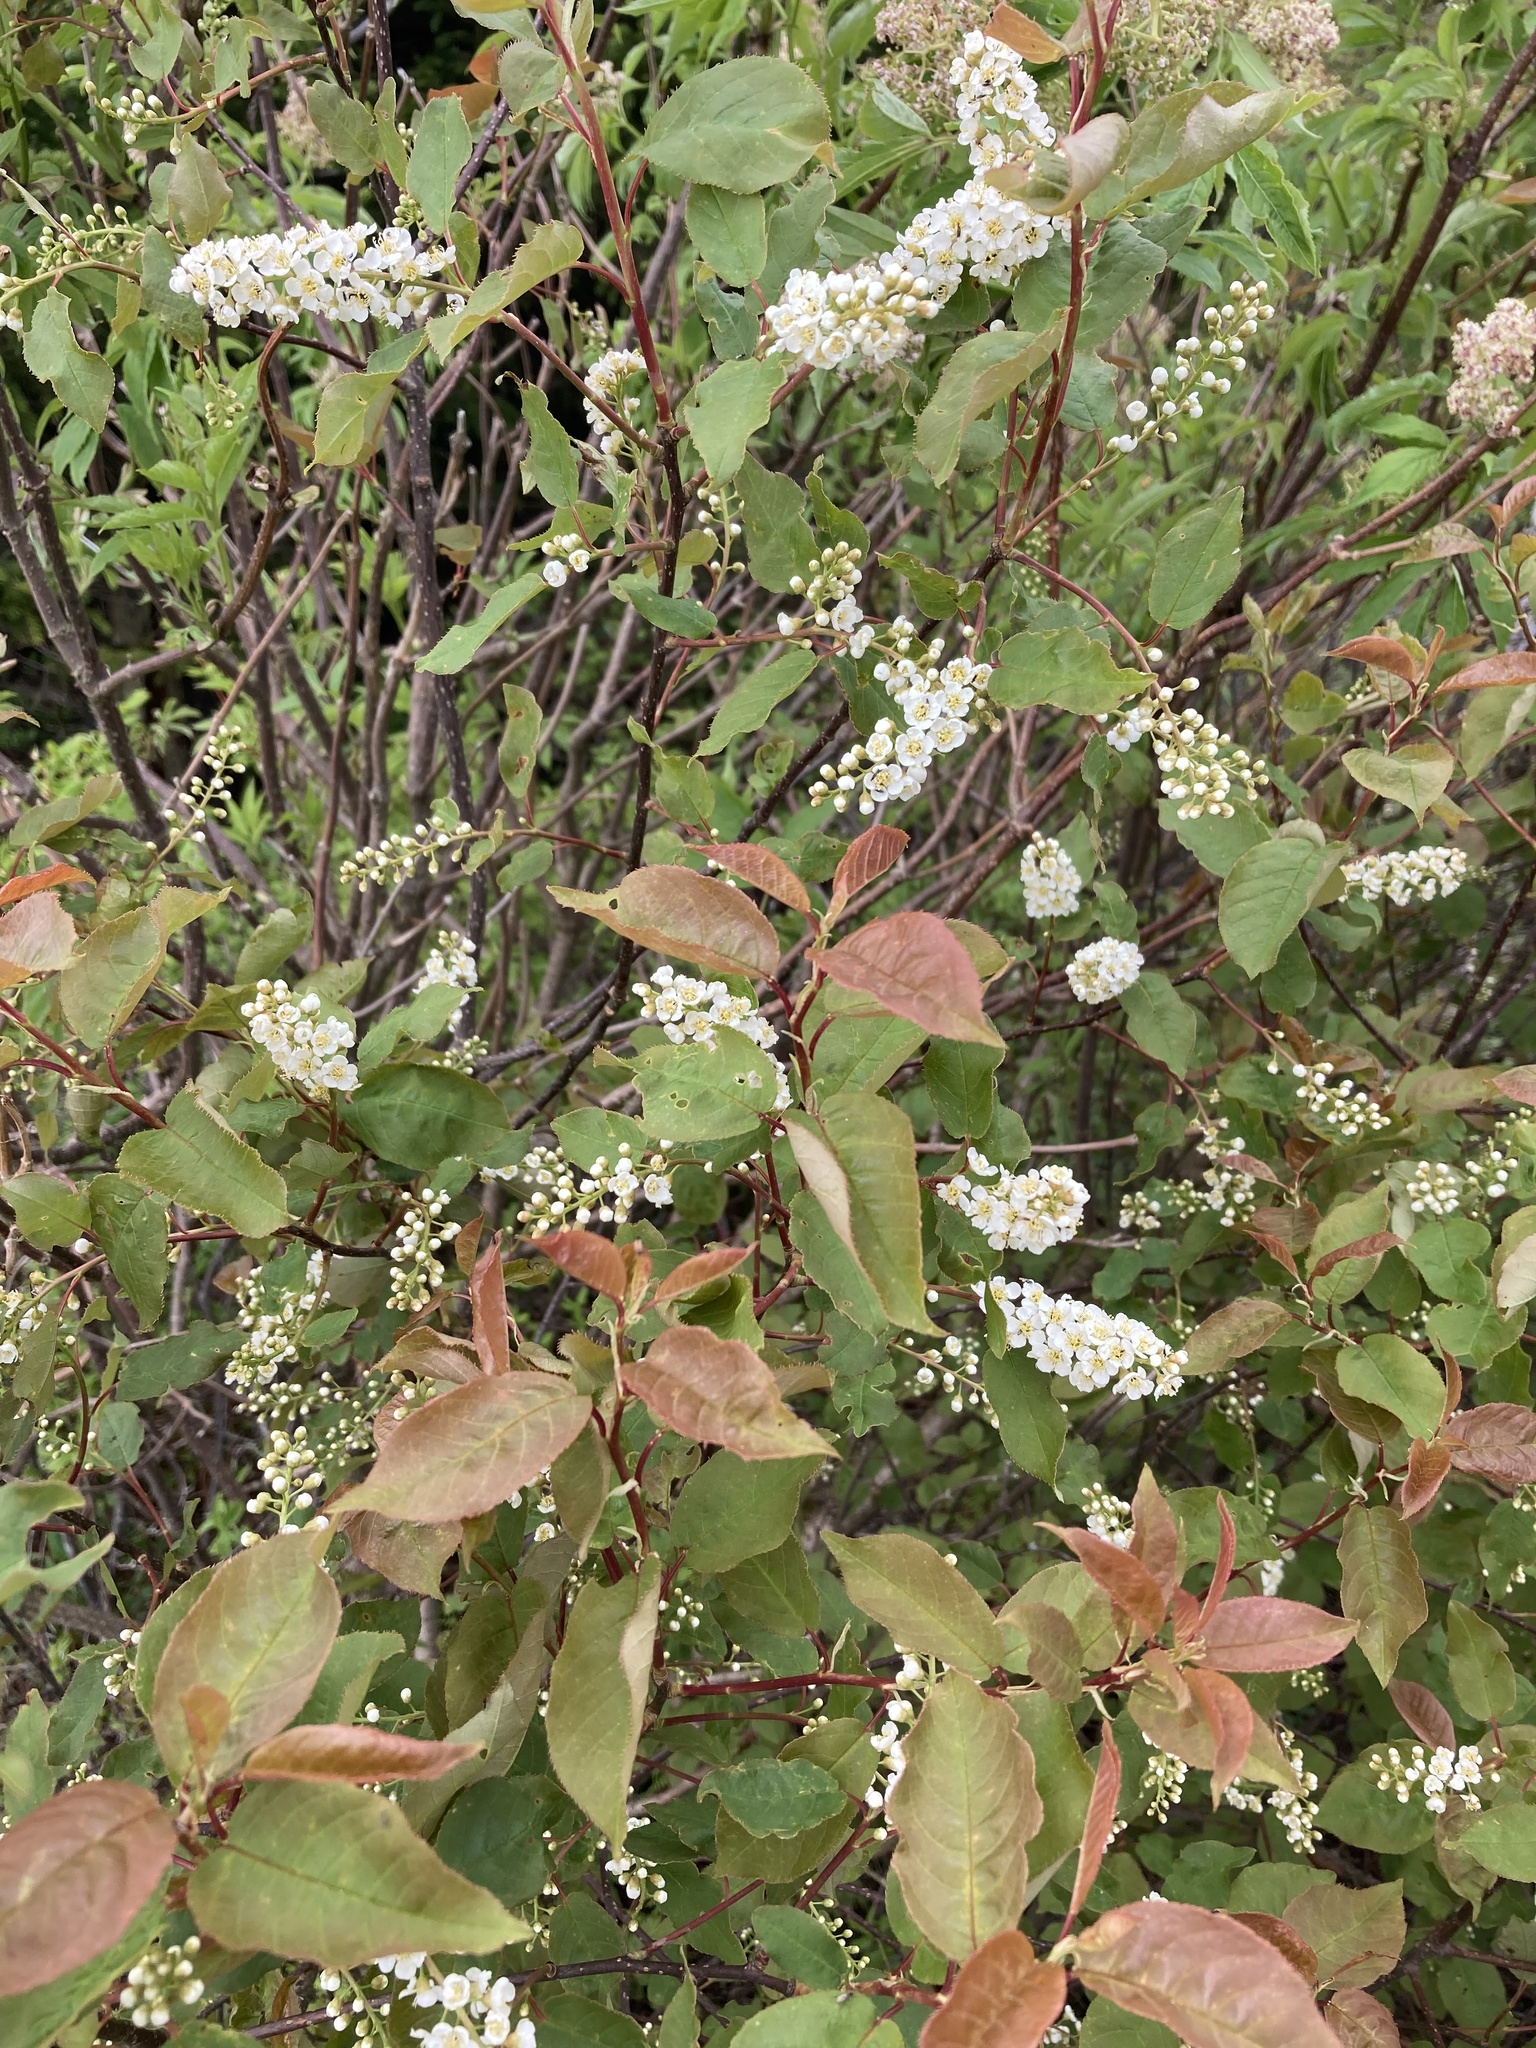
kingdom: Plantae
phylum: Tracheophyta
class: Magnoliopsida
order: Rosales
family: Rosaceae
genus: Prunus
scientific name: Prunus virginiana
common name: Chokecherry
